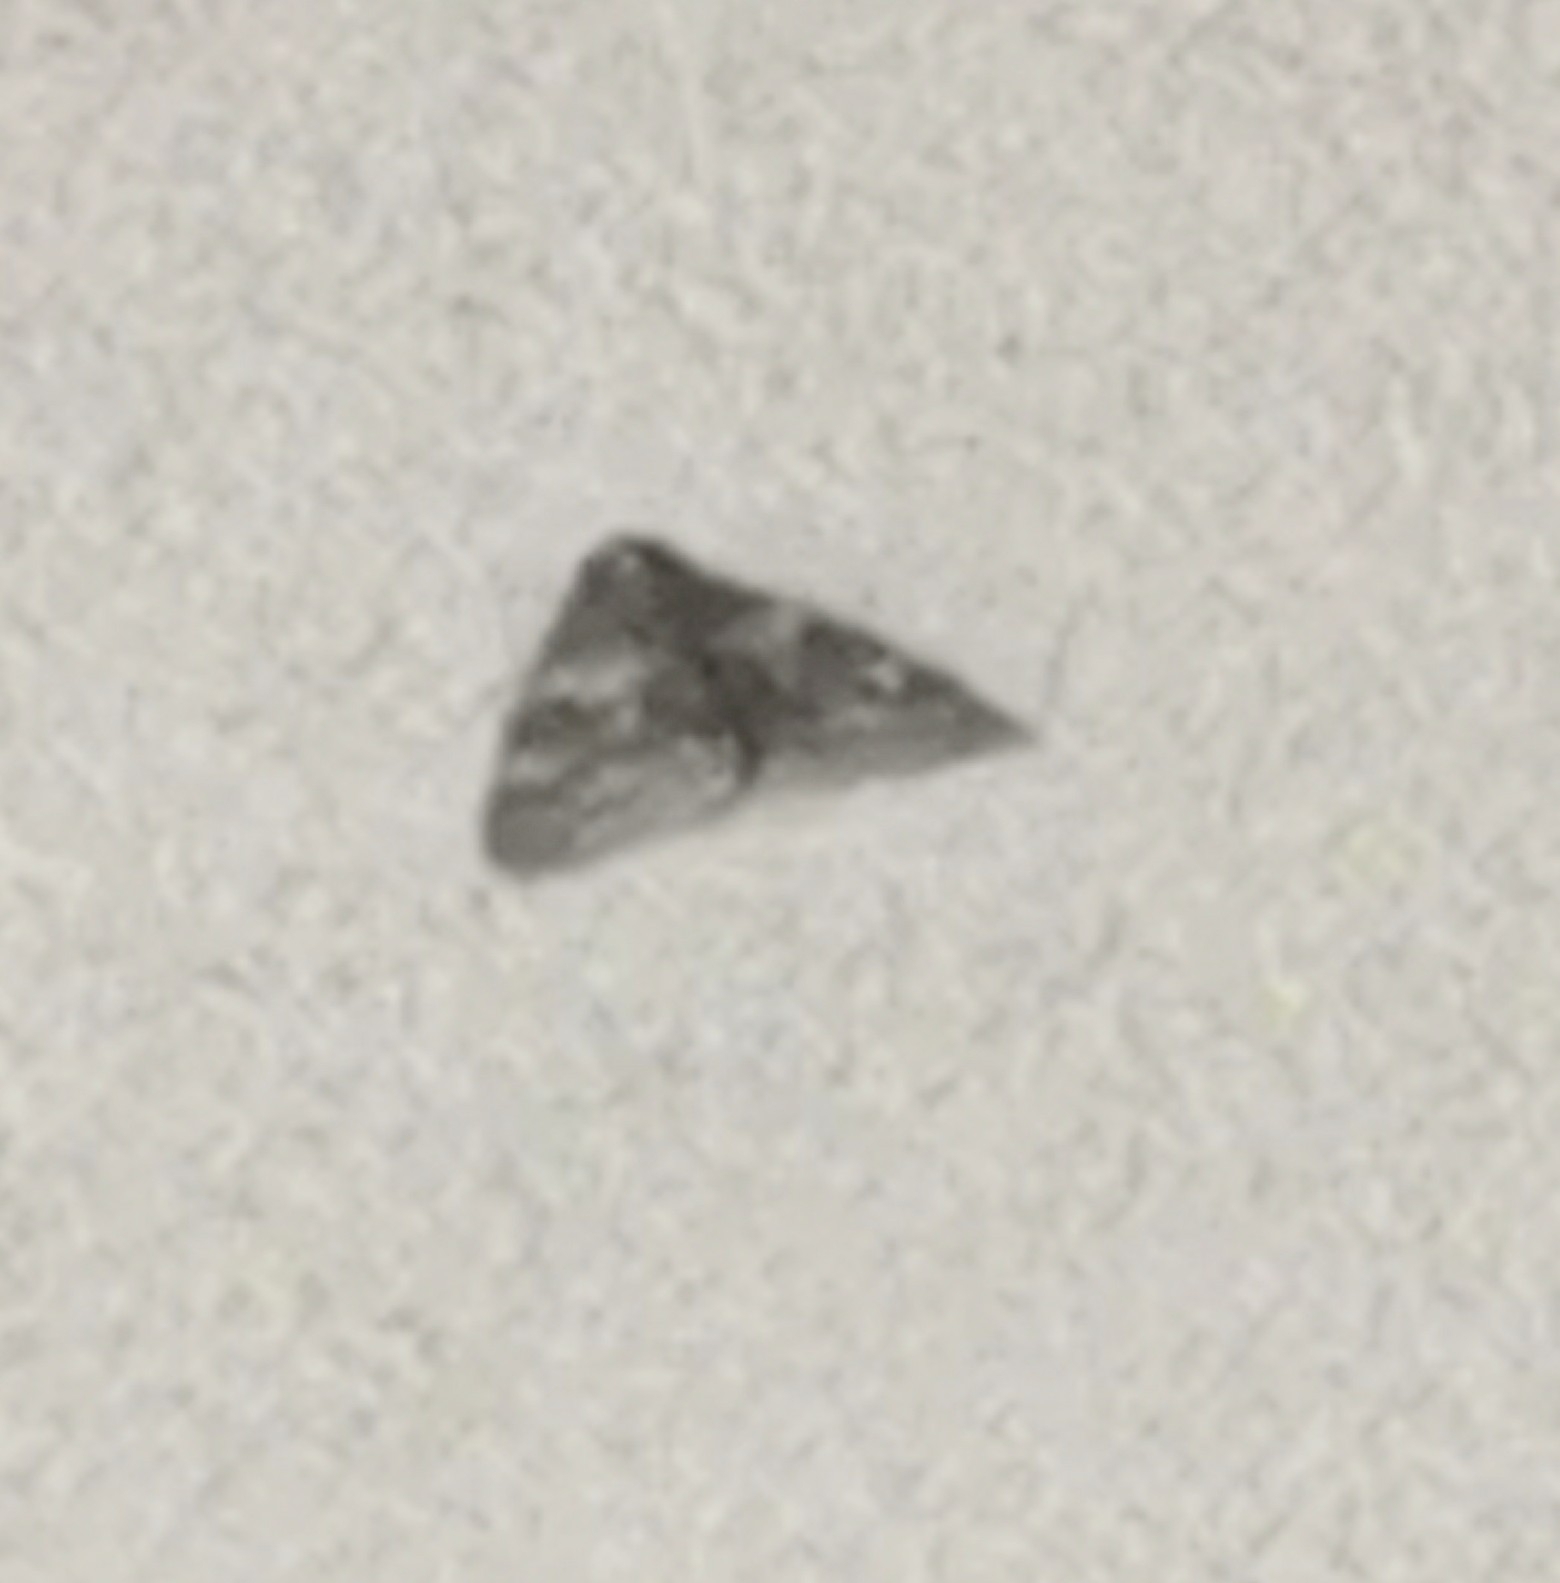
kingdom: Animalia
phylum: Arthropoda
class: Insecta
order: Lepidoptera
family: Erebidae
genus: Catocala
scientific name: Catocala fraxini
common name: Clifden nonpareil
